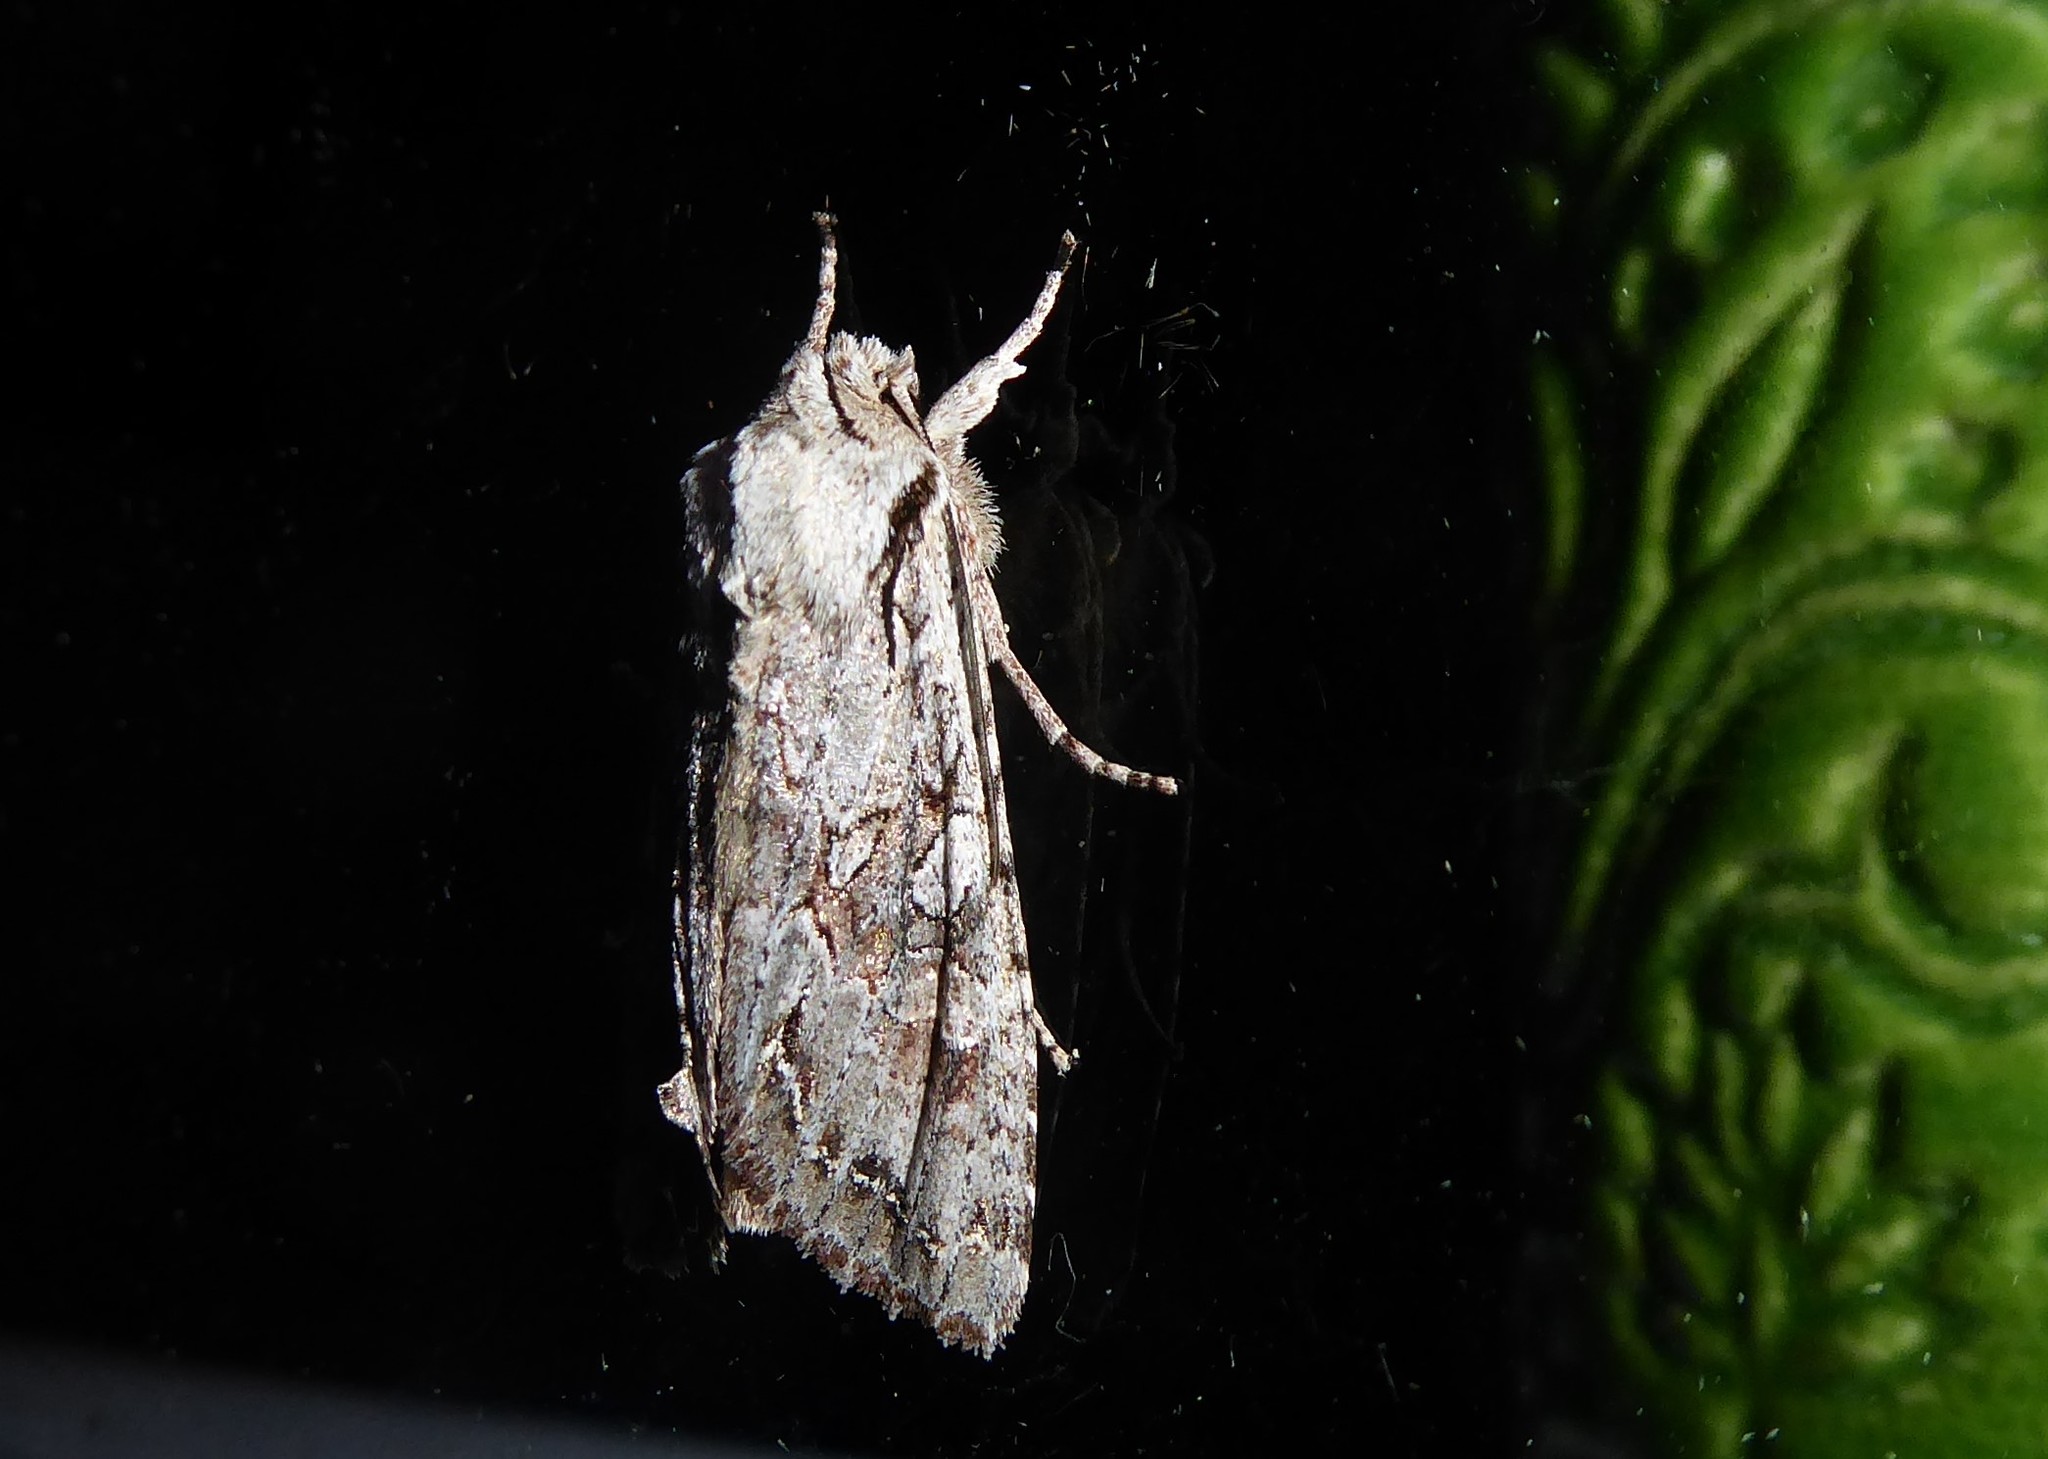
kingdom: Animalia
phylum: Arthropoda
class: Insecta
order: Lepidoptera
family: Noctuidae
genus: Ichneutica
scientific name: Ichneutica mutans
